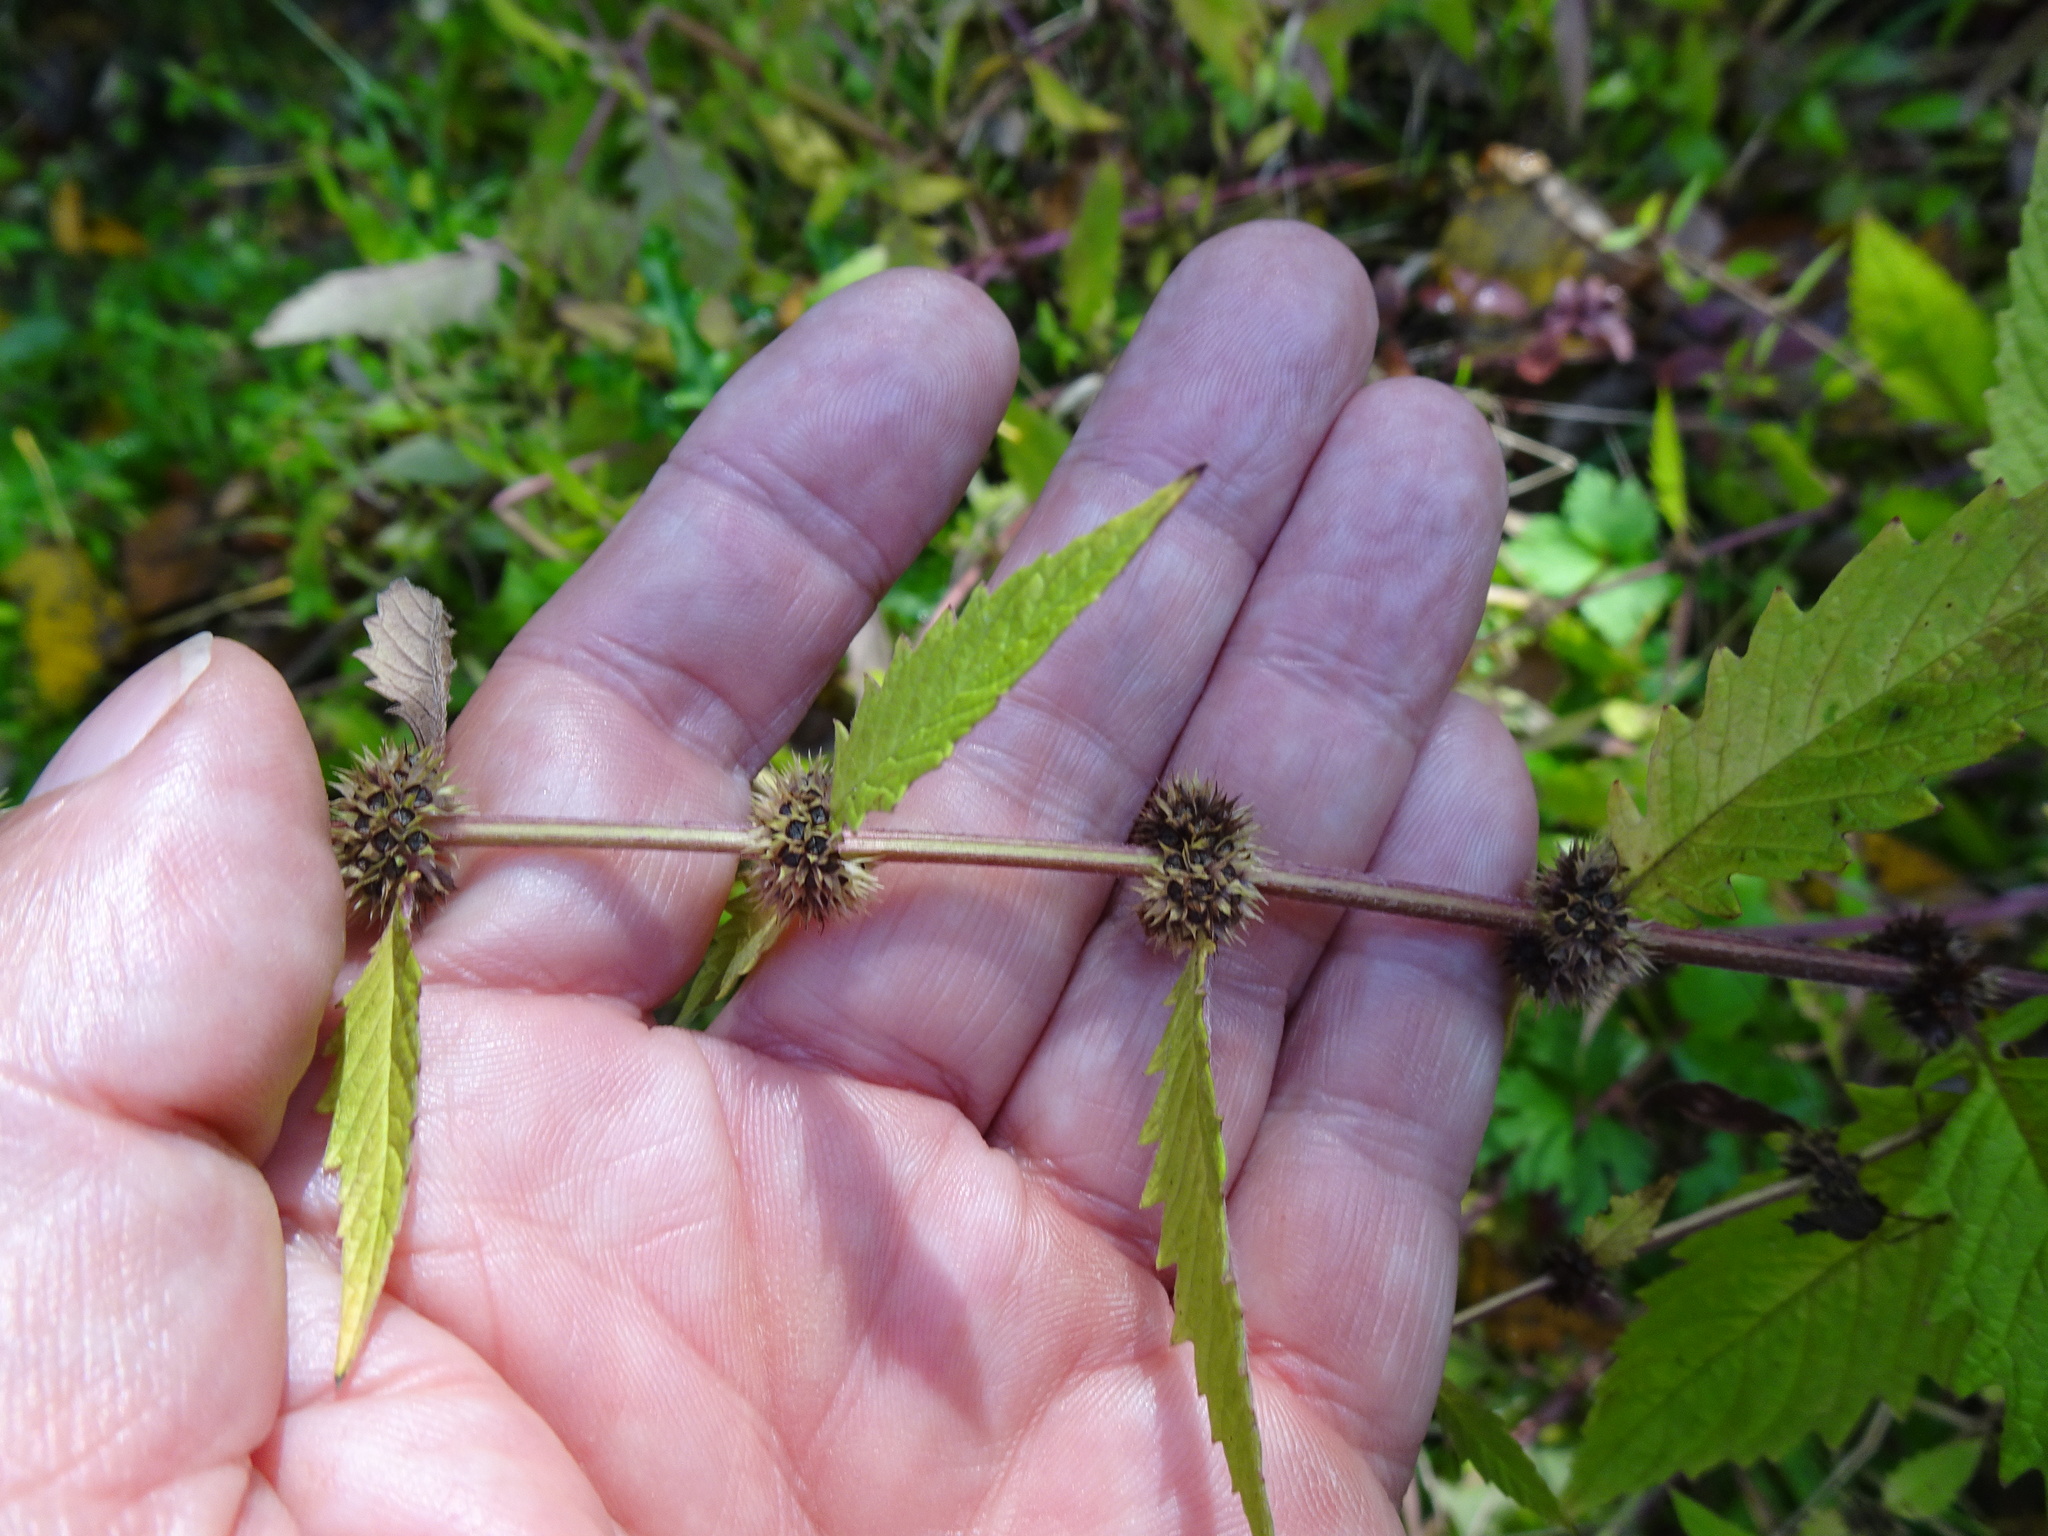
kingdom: Plantae
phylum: Tracheophyta
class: Magnoliopsida
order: Lamiales
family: Lamiaceae
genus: Lycopus
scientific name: Lycopus europaeus
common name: European bugleweed
